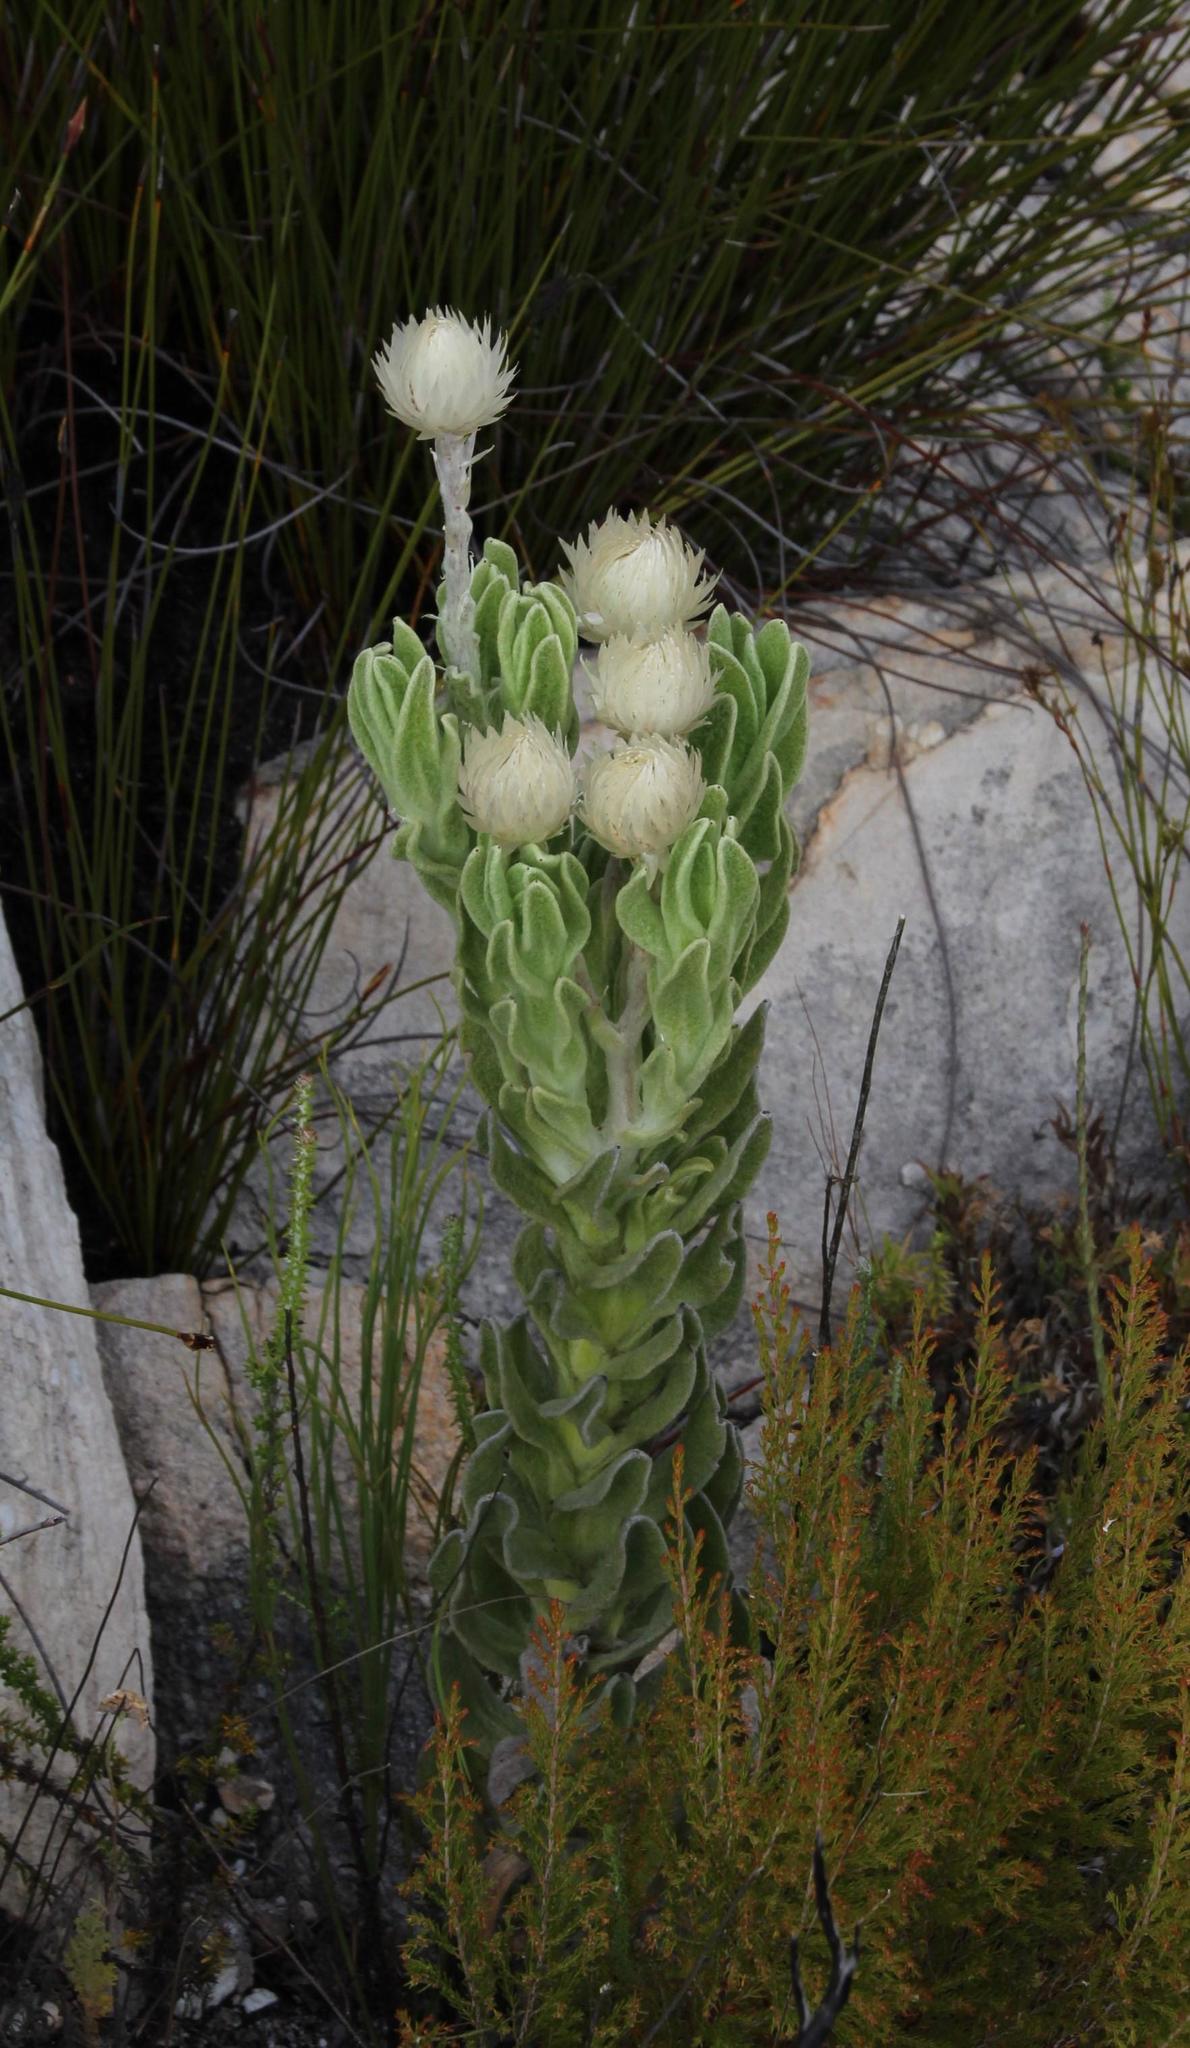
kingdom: Plantae
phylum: Tracheophyta
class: Magnoliopsida
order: Asterales
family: Asteraceae
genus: Syncarpha
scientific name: Syncarpha vestita
